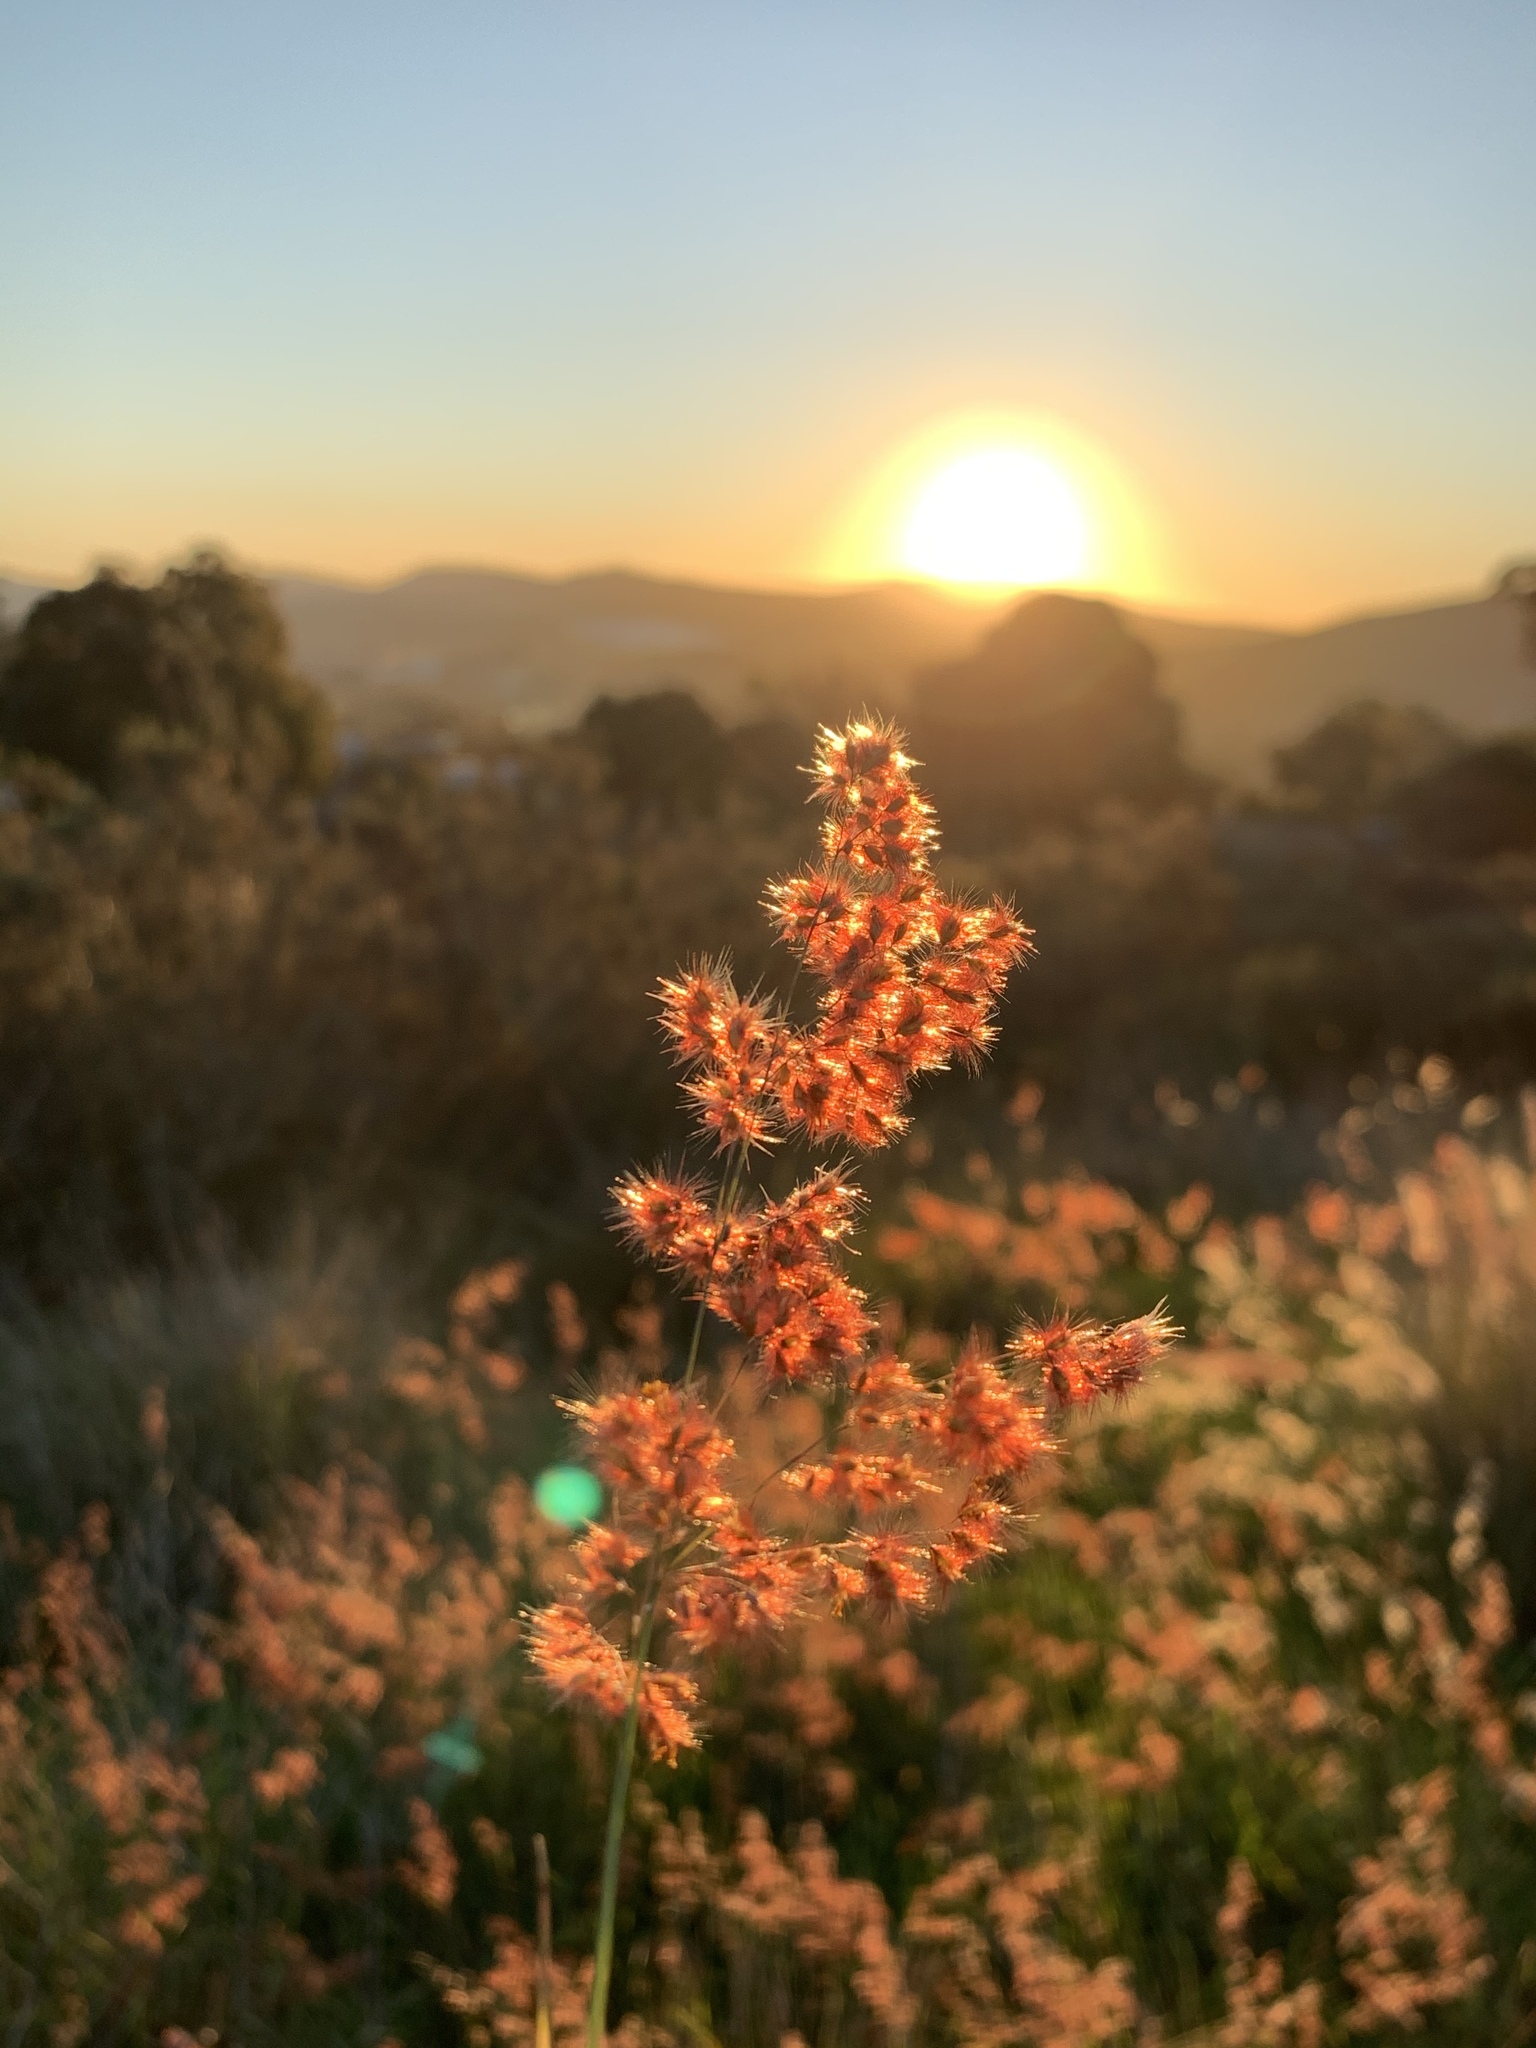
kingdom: Plantae
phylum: Tracheophyta
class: Liliopsida
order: Poales
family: Poaceae
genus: Melinis
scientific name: Melinis repens
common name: Rose natal grass
